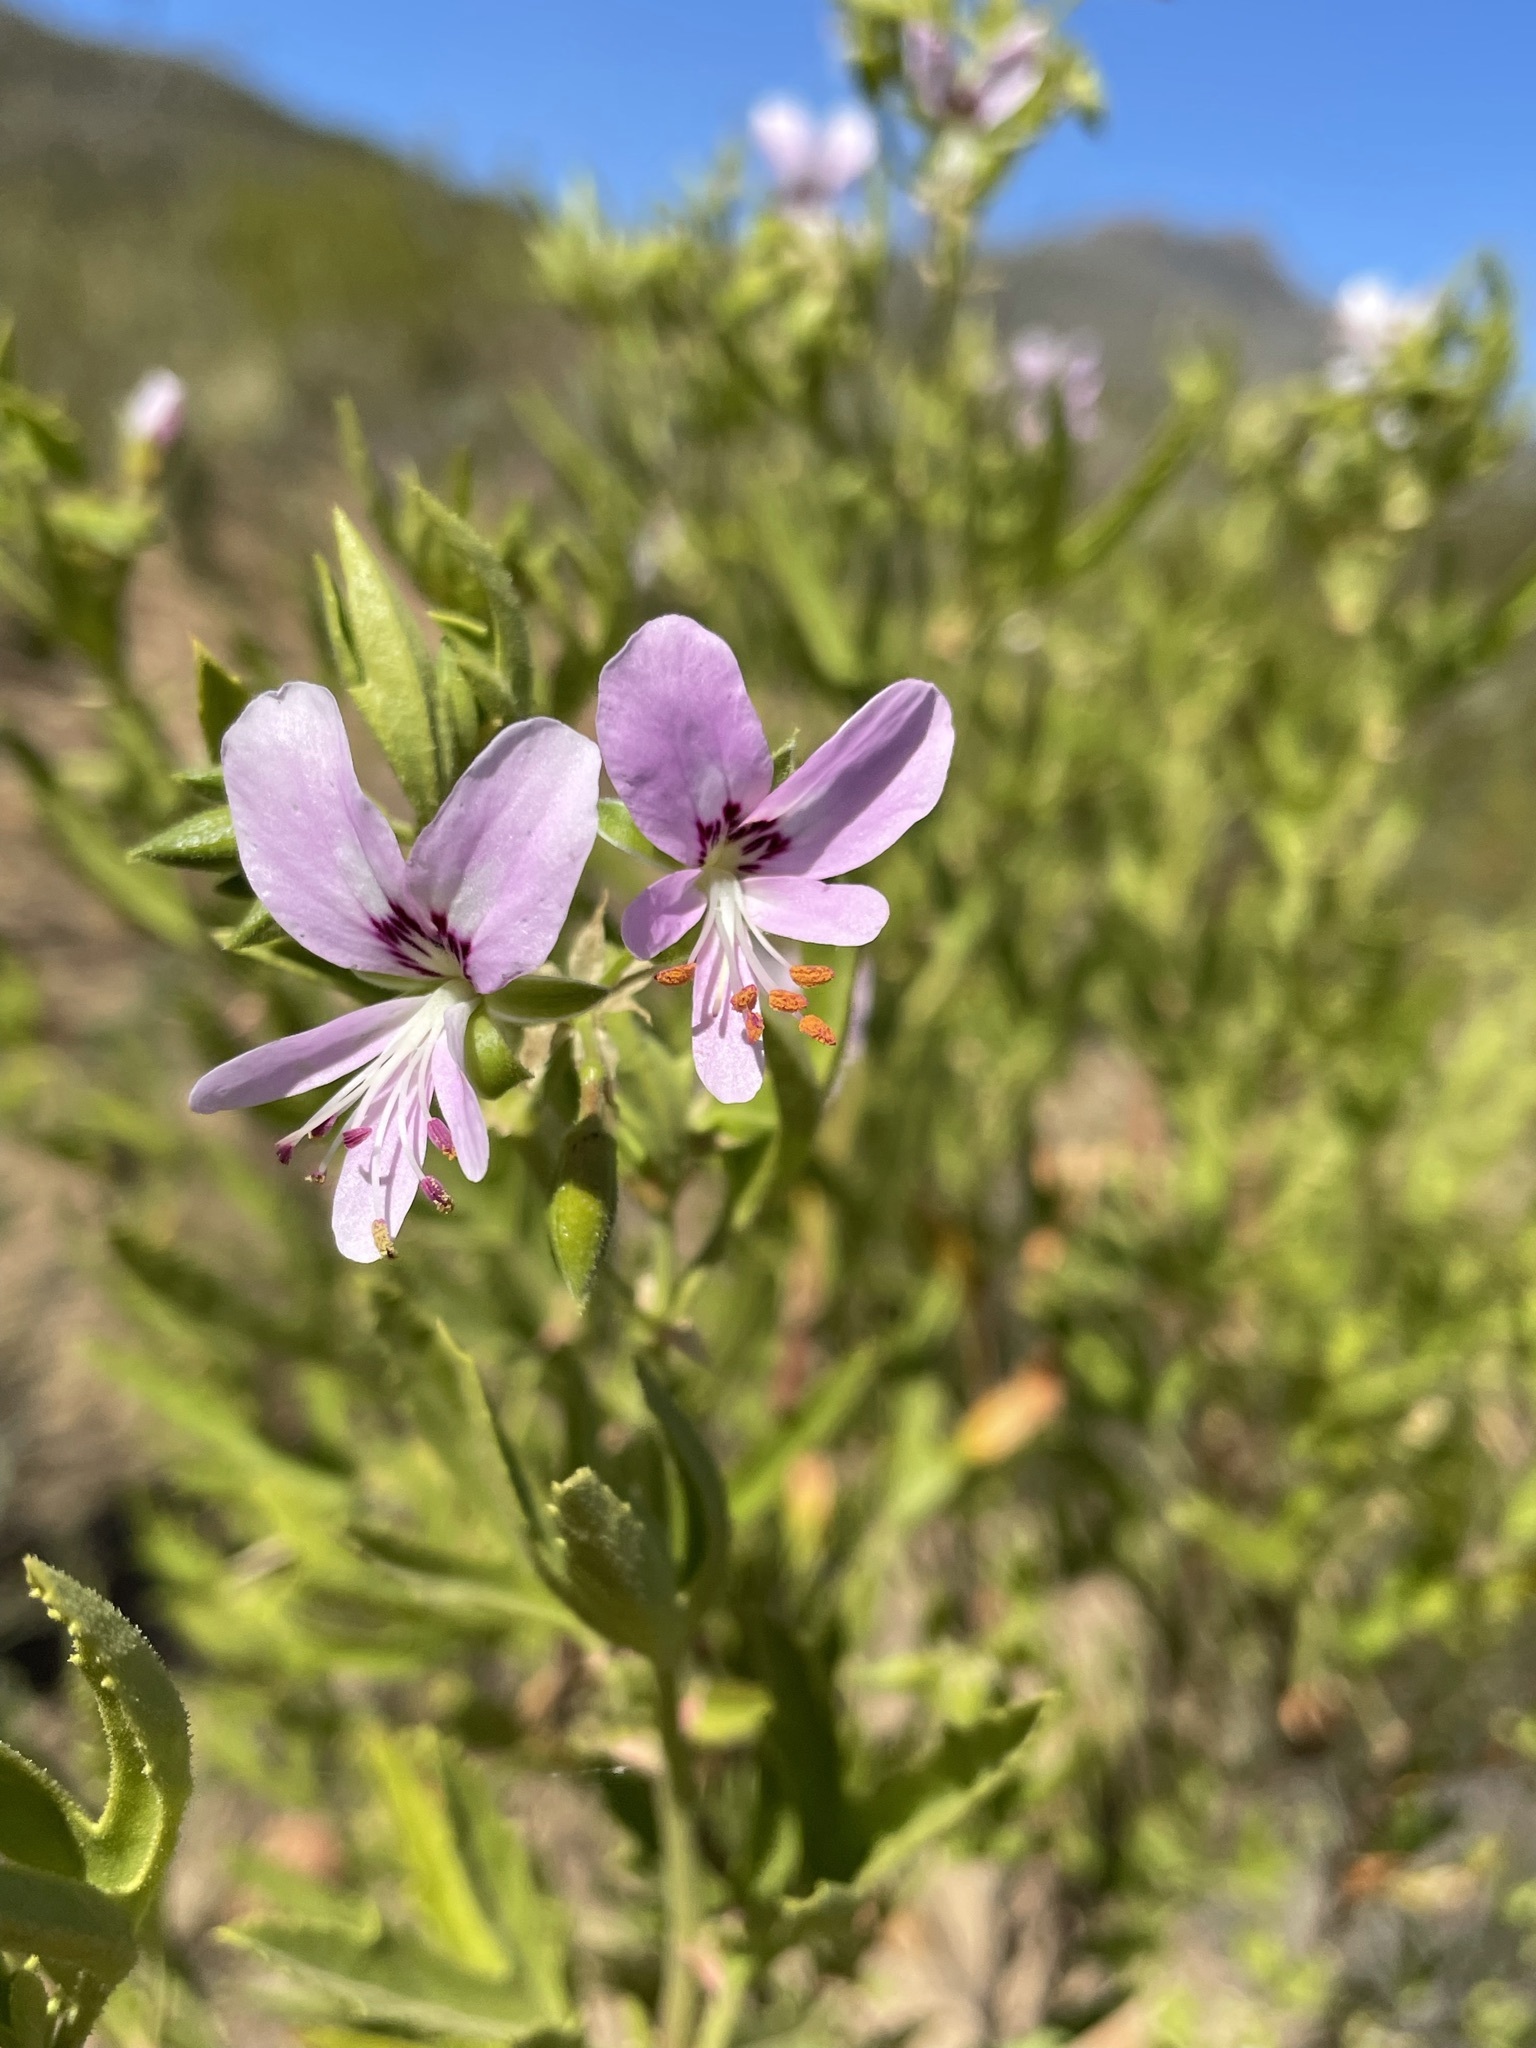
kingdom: Plantae
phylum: Tracheophyta
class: Magnoliopsida
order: Geraniales
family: Geraniaceae
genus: Pelargonium
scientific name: Pelargonium scabrum
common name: Apricot geranium
